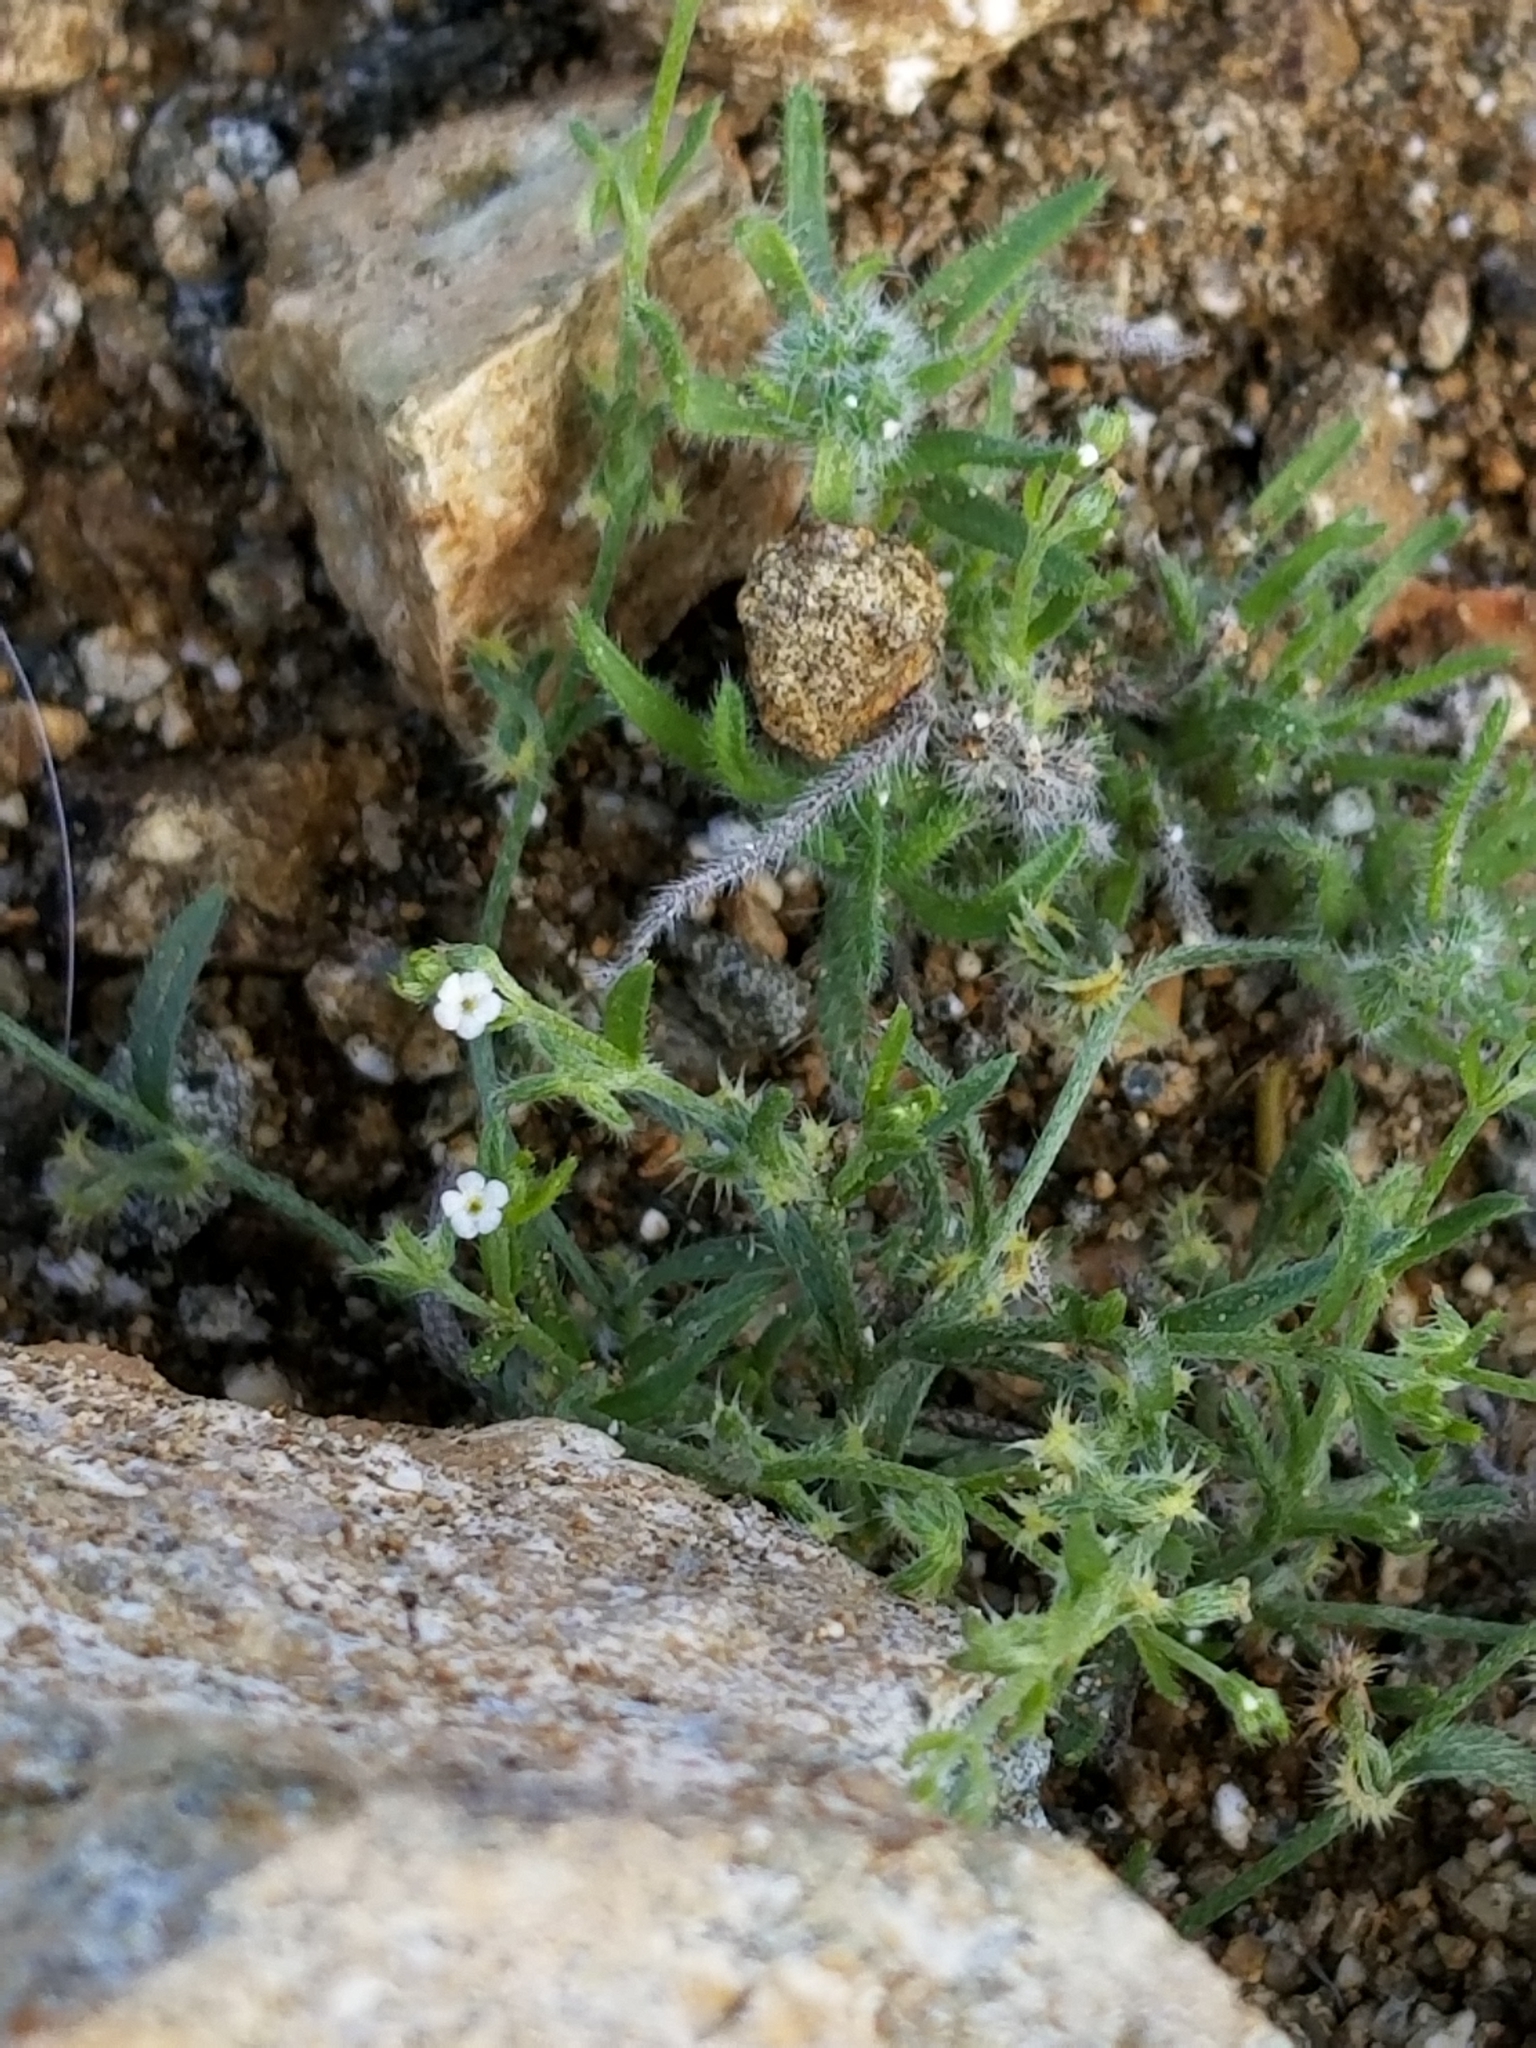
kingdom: Plantae
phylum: Tracheophyta
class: Magnoliopsida
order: Boraginales
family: Boraginaceae
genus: Pectocarya
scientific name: Pectocarya recurvata
